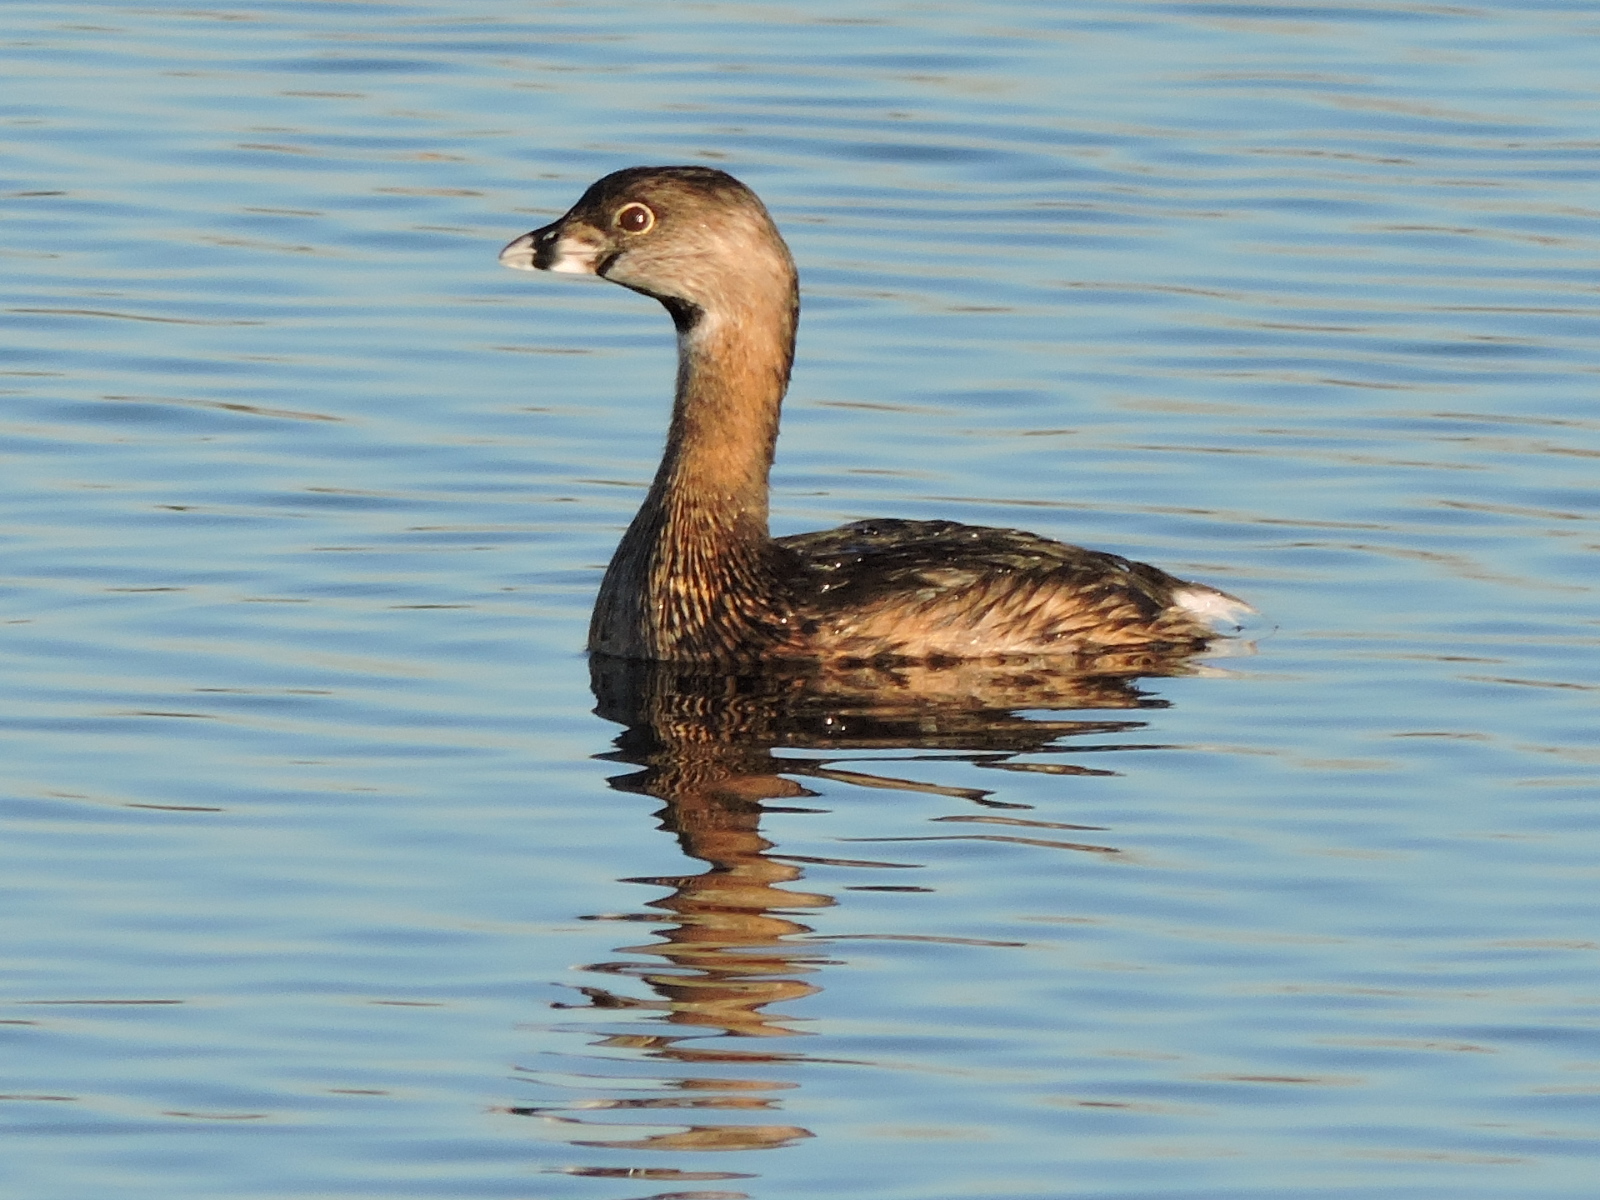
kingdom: Animalia
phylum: Chordata
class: Aves
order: Podicipediformes
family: Podicipedidae
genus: Podilymbus
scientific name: Podilymbus podiceps
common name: Pied-billed grebe
